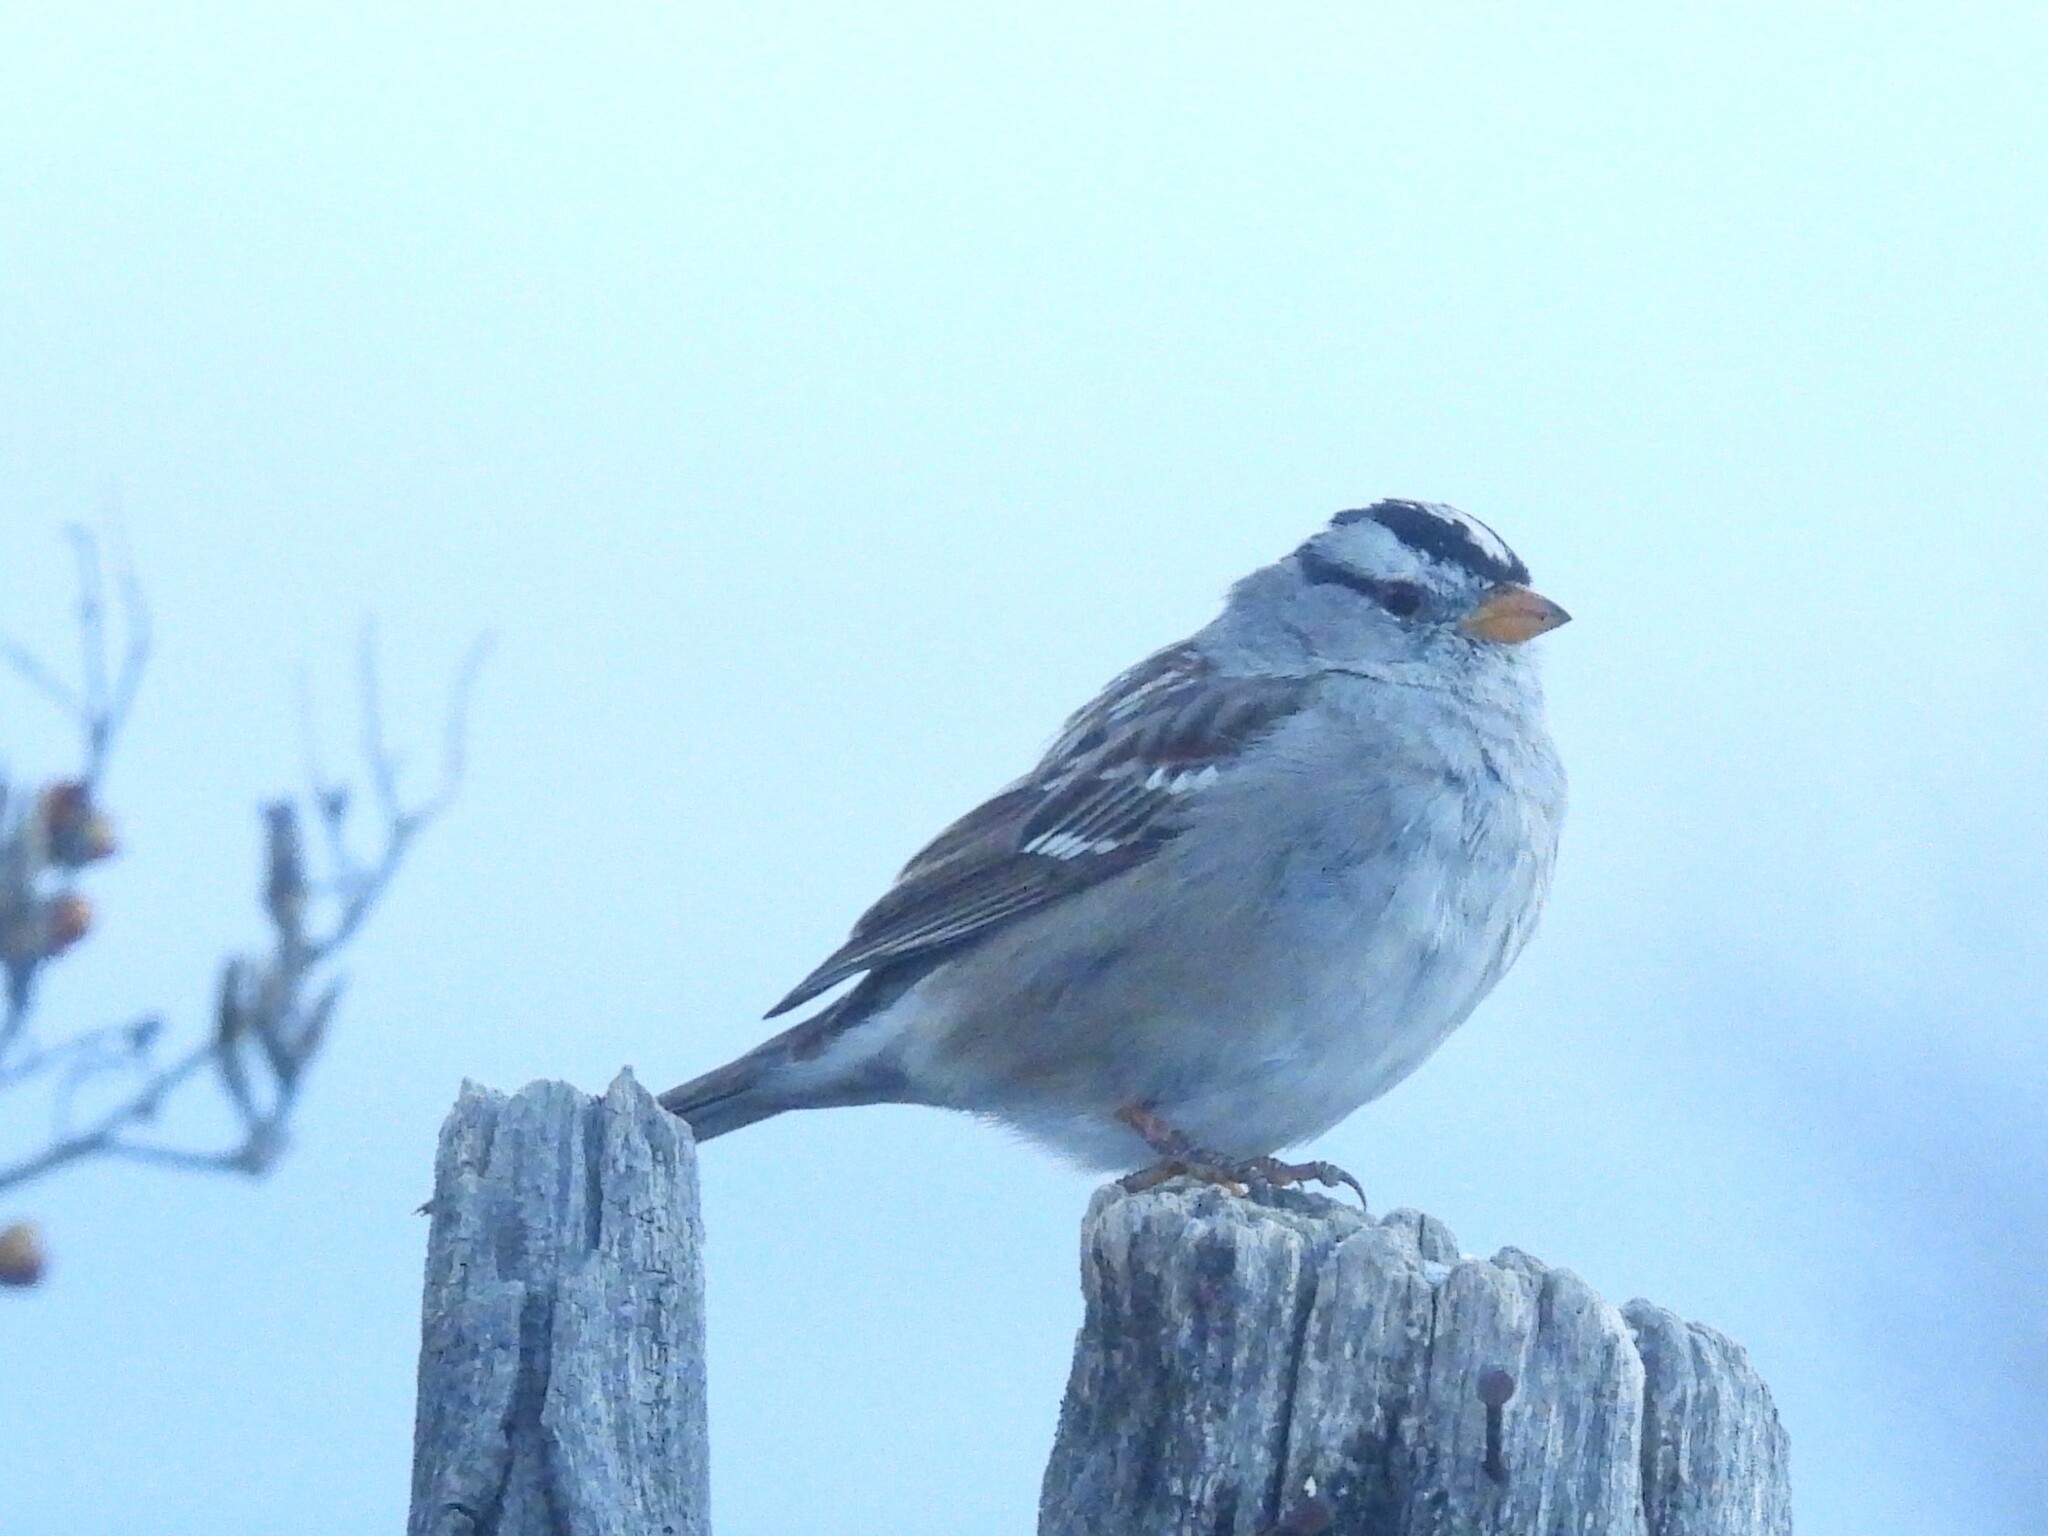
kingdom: Animalia
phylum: Chordata
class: Aves
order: Passeriformes
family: Passerellidae
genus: Zonotrichia
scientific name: Zonotrichia leucophrys
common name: White-crowned sparrow
